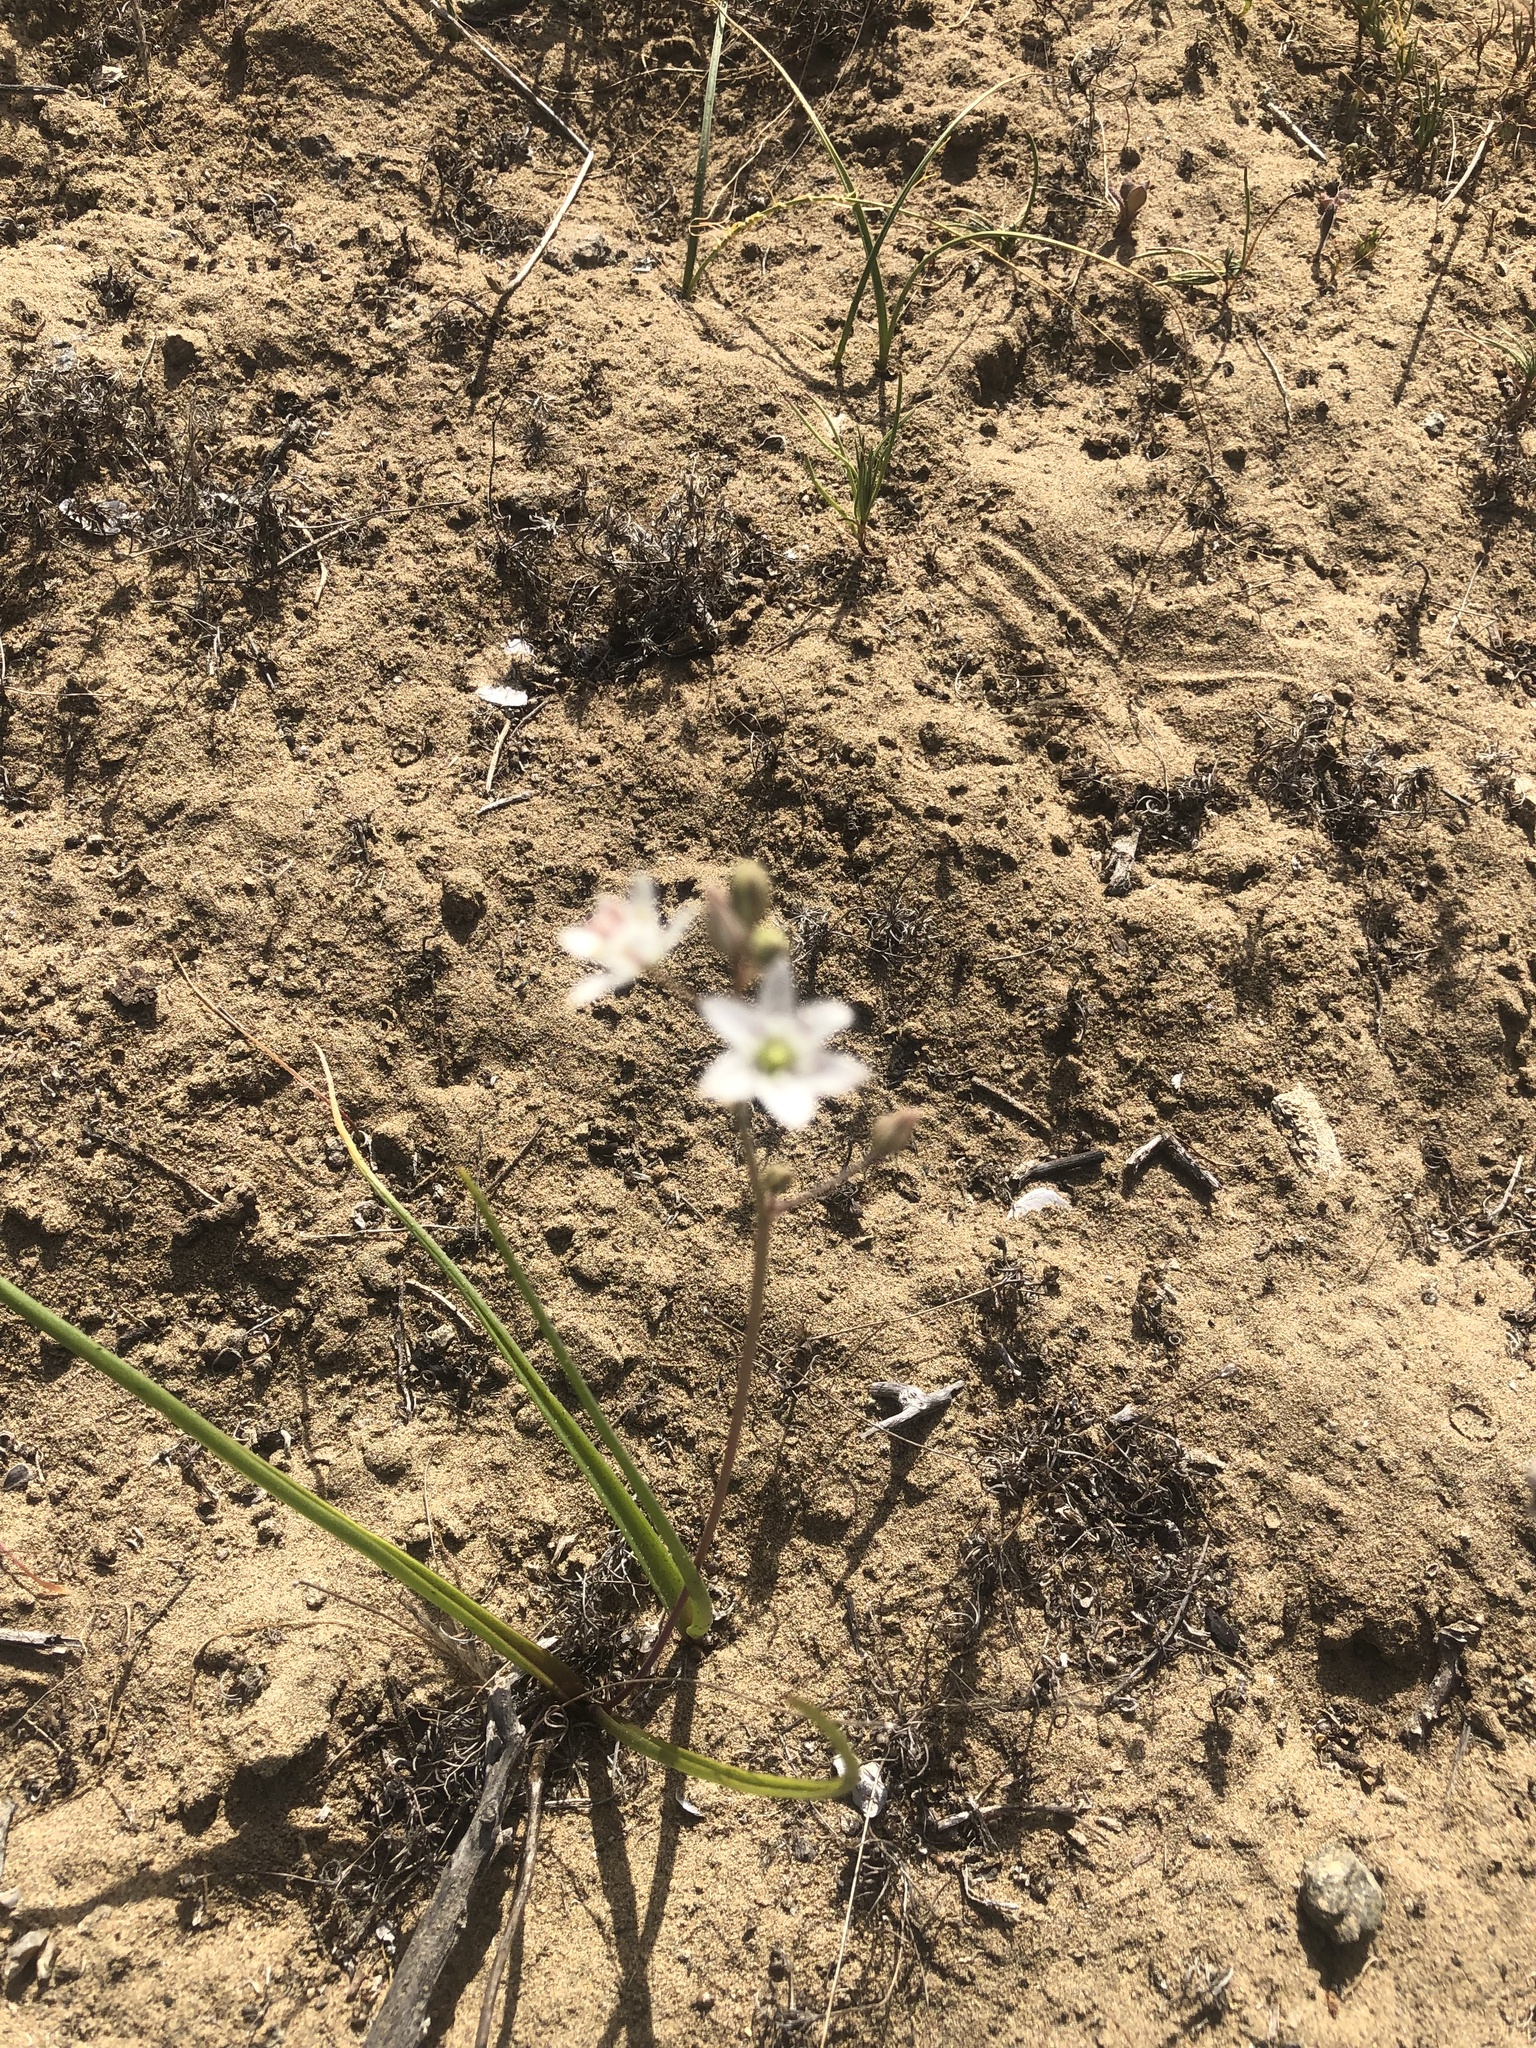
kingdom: Plantae
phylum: Tracheophyta
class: Liliopsida
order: Asparagales
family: Asparagaceae
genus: Oziroe
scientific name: Oziroe arida
